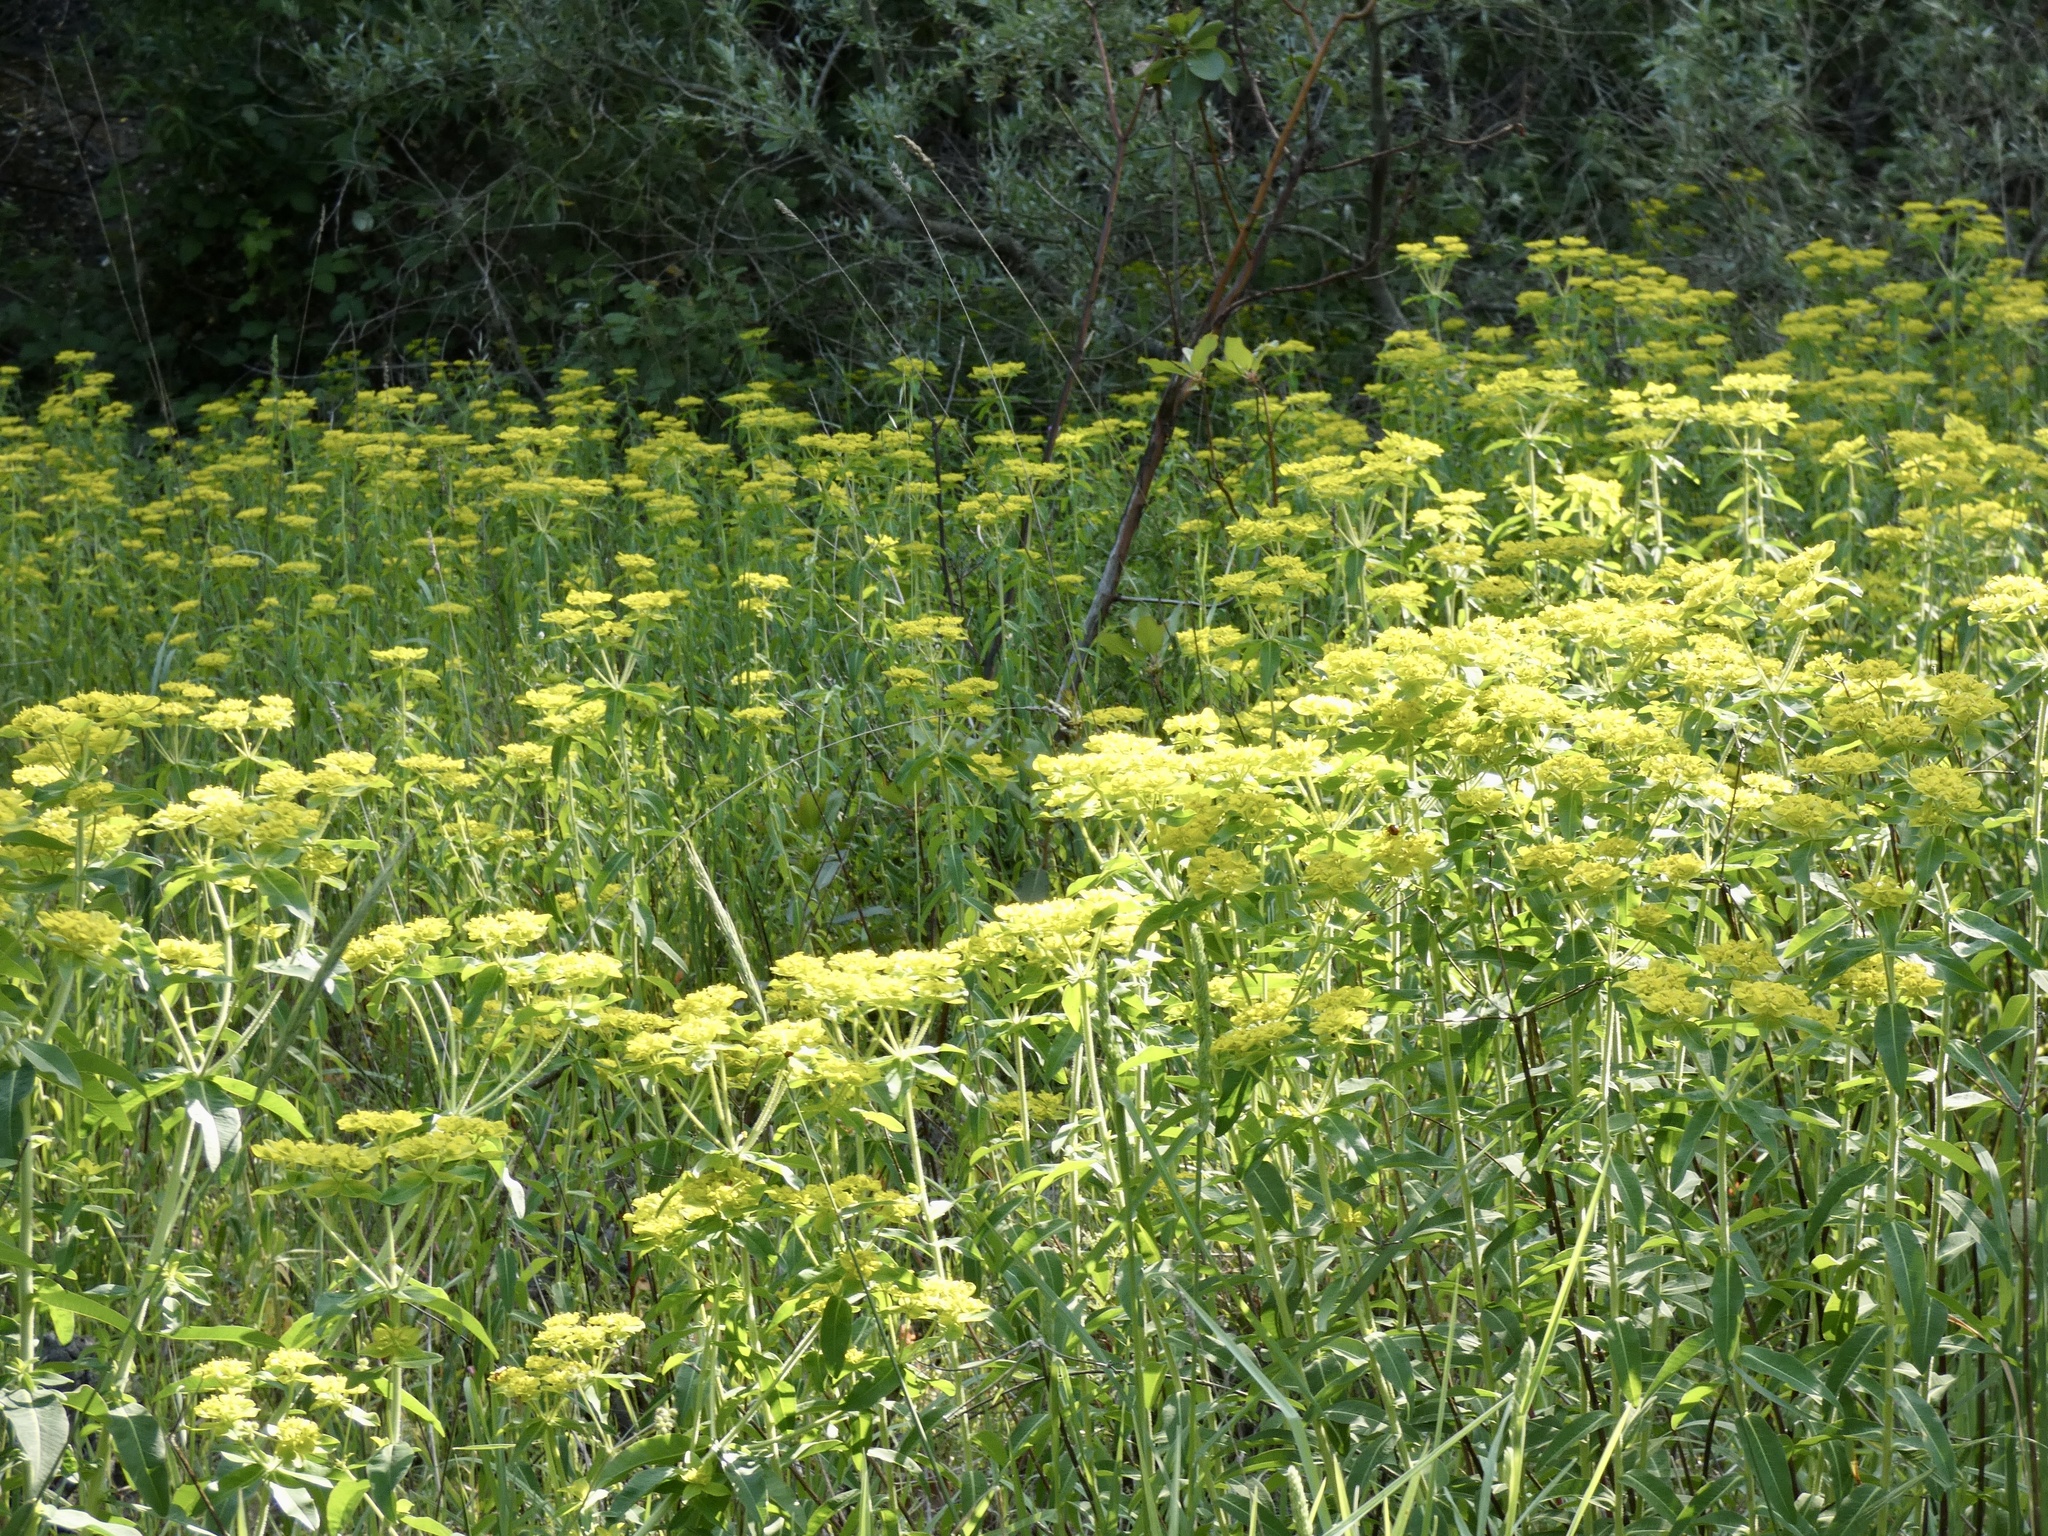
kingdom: Plantae
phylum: Tracheophyta
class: Magnoliopsida
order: Malpighiales
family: Euphorbiaceae
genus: Euphorbia
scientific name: Euphorbia oblongata
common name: Balkan spurge
